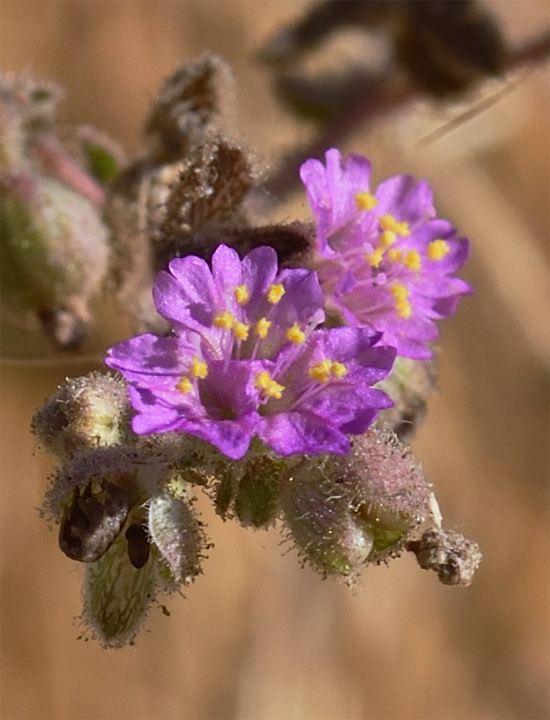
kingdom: Plantae
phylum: Tracheophyta
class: Magnoliopsida
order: Caryophyllales
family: Nyctaginaceae
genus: Allionia
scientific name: Allionia incarnata
